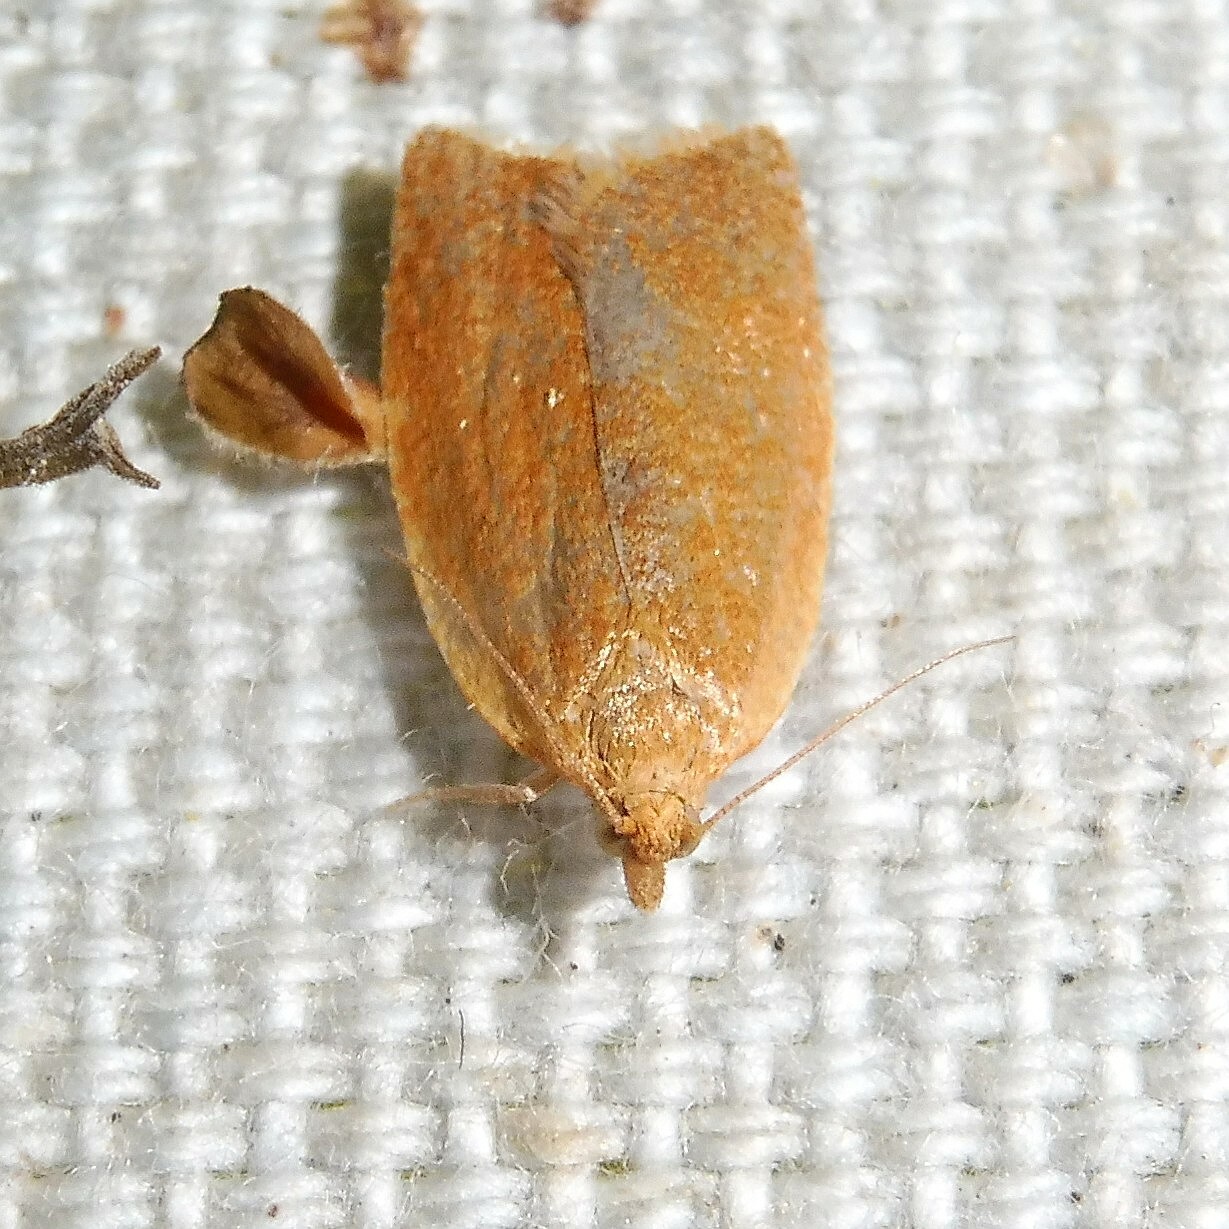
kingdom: Animalia
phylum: Arthropoda
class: Insecta
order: Lepidoptera
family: Tortricidae
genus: Clepsis
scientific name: Clepsis consimilana
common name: Privet tortrix
